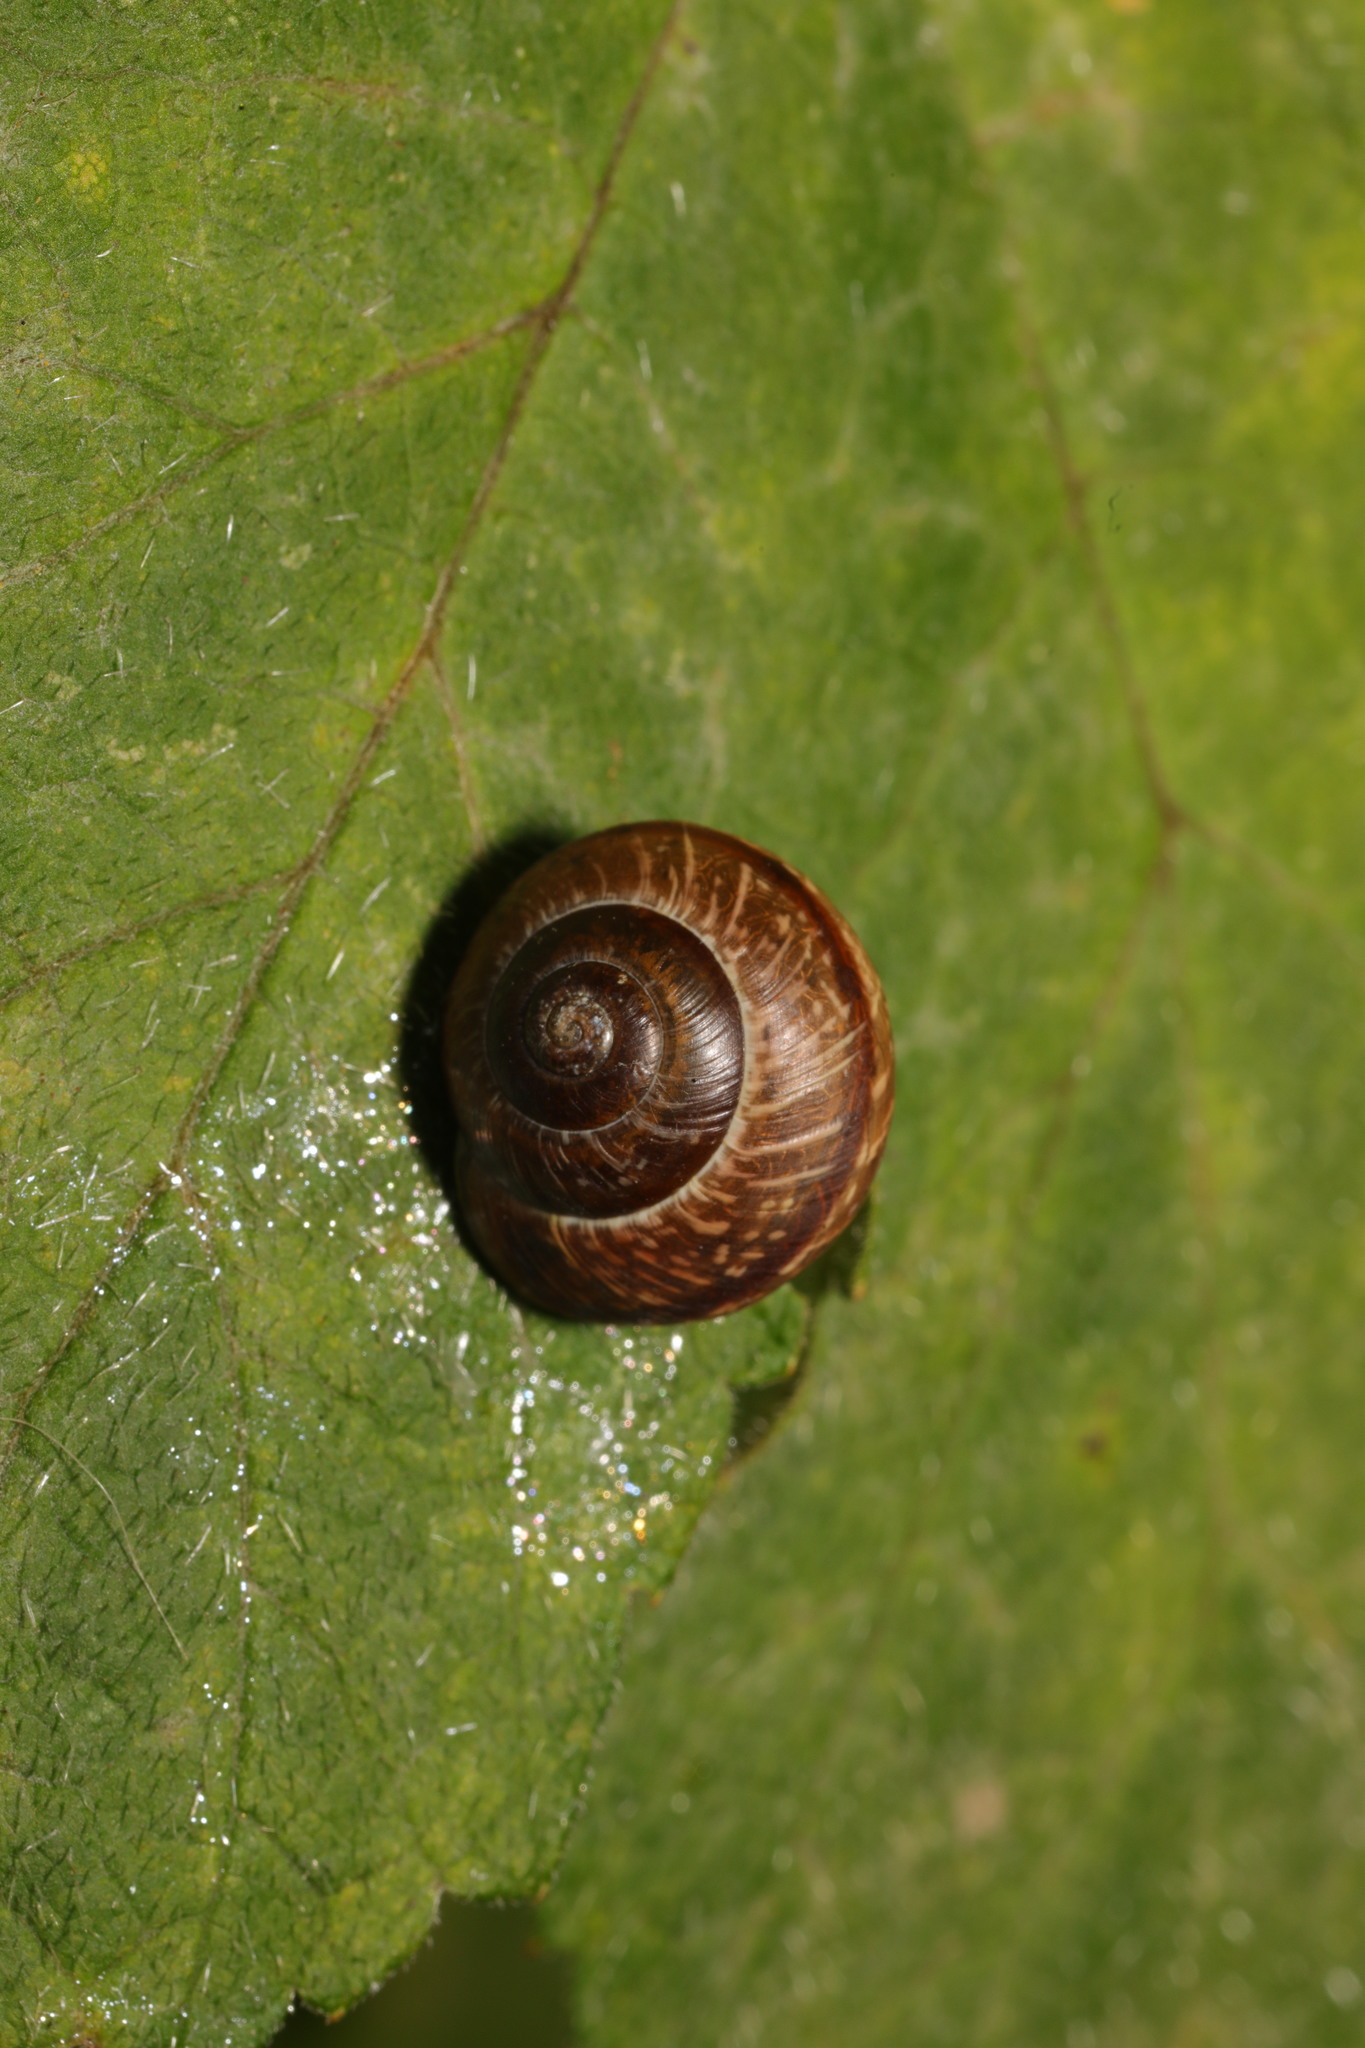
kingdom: Animalia
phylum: Mollusca
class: Gastropoda
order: Stylommatophora
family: Helicidae
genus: Arianta
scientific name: Arianta arbustorum
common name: Copse snail
